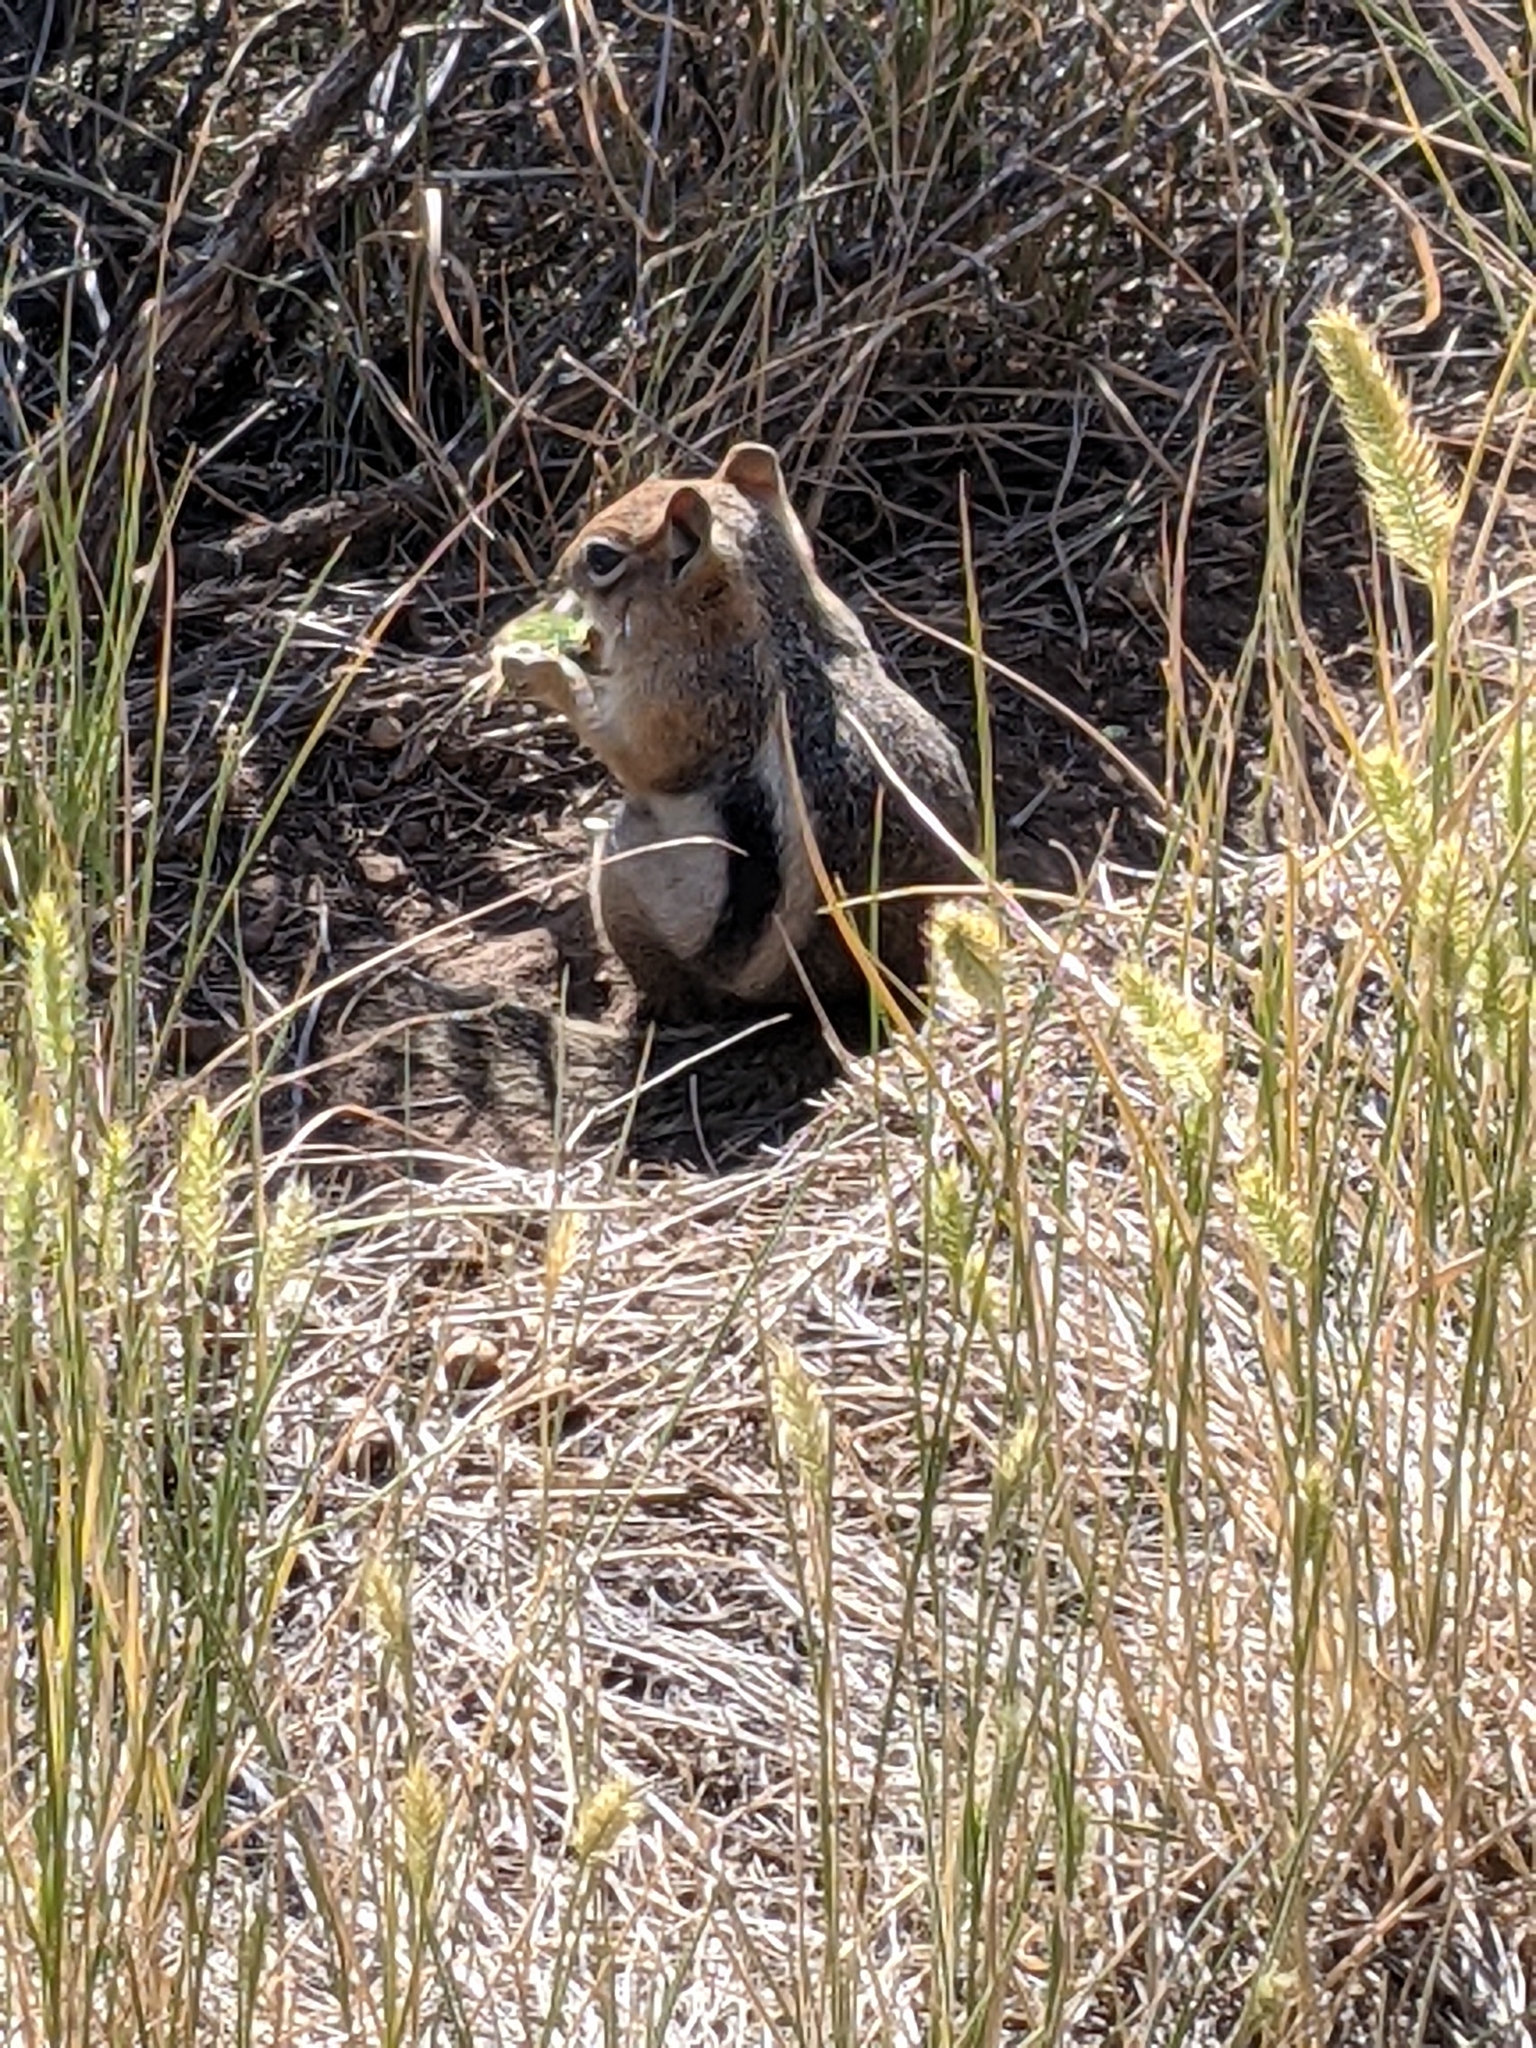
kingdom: Animalia
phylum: Chordata
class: Mammalia
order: Rodentia
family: Sciuridae
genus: Callospermophilus
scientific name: Callospermophilus lateralis
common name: Golden-mantled ground squirrel
